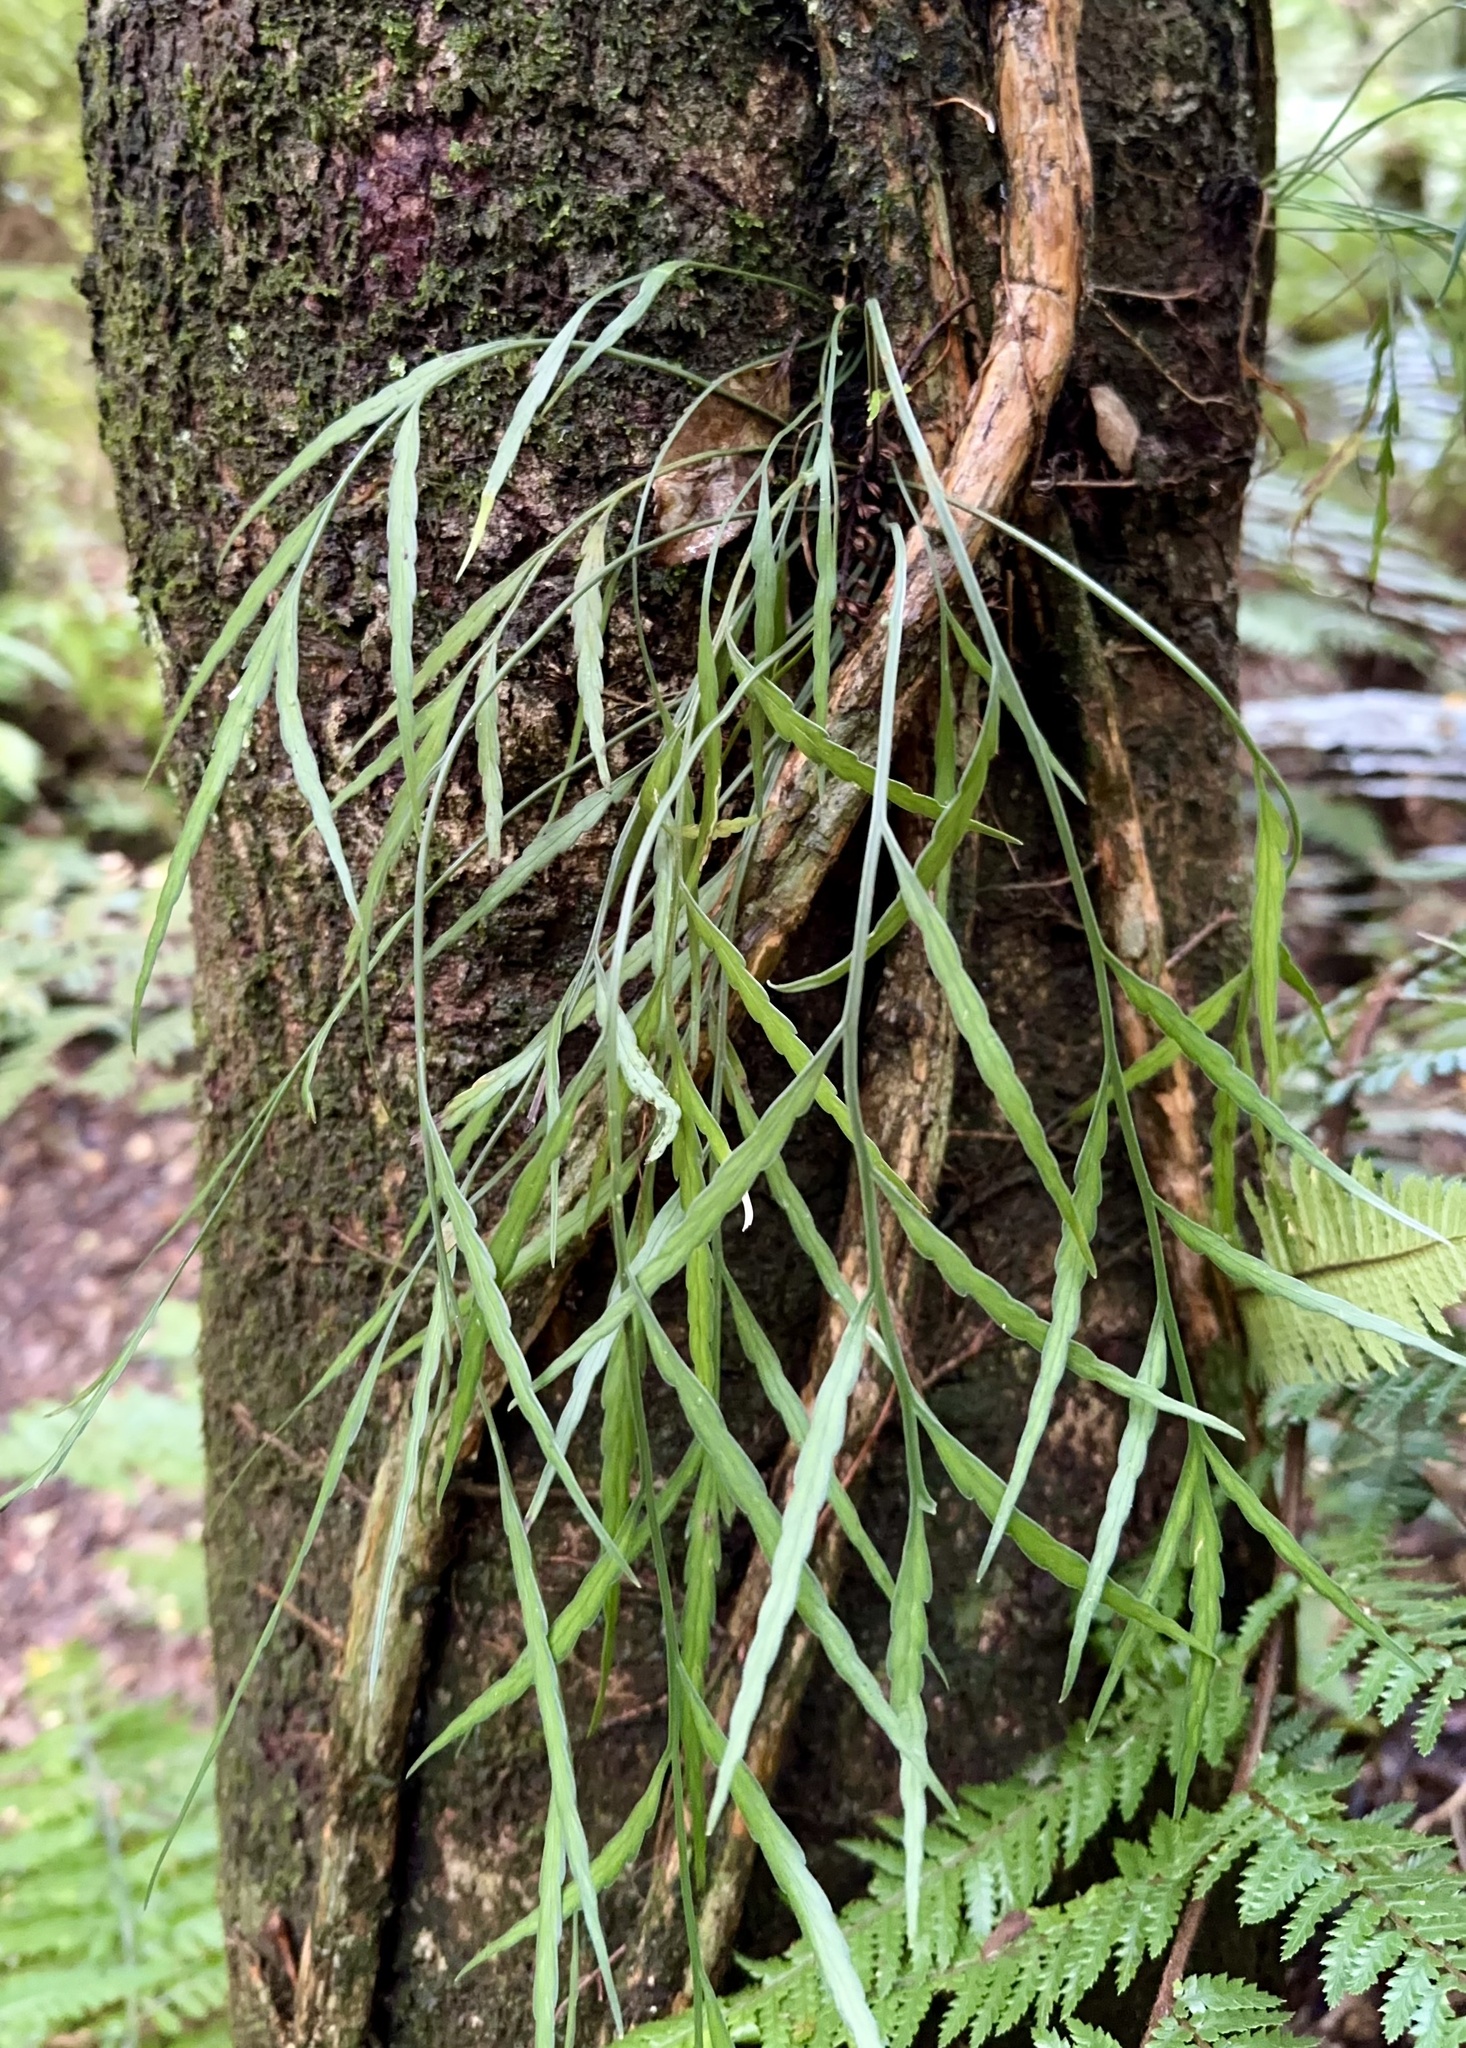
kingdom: Plantae
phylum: Tracheophyta
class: Polypodiopsida
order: Polypodiales
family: Aspleniaceae
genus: Asplenium
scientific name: Asplenium flaccidum
